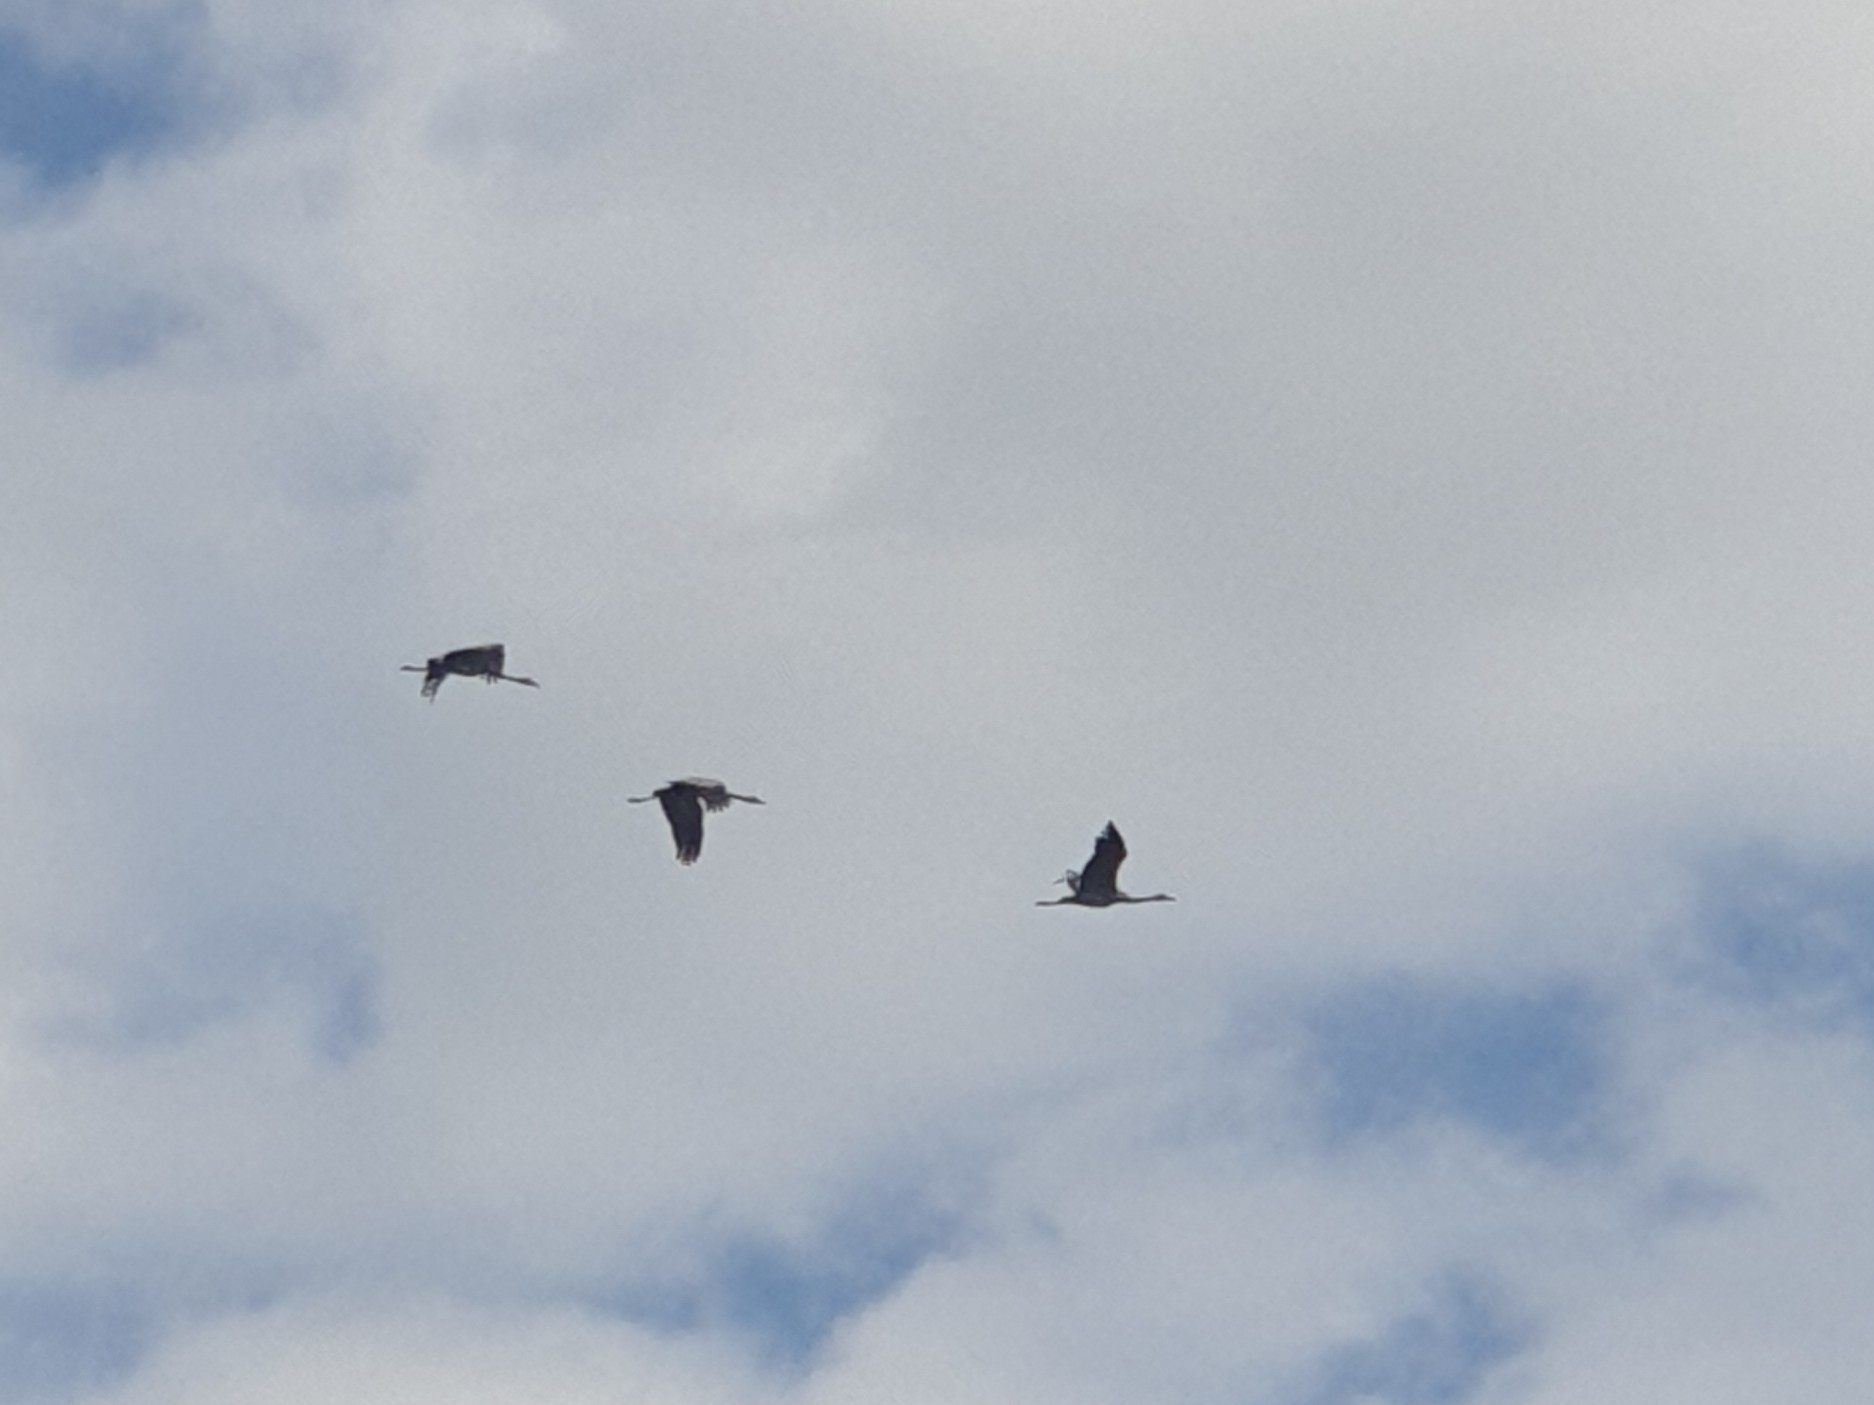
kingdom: Animalia
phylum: Chordata
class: Aves
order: Gruiformes
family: Gruidae
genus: Grus
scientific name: Grus grus
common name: Common crane
